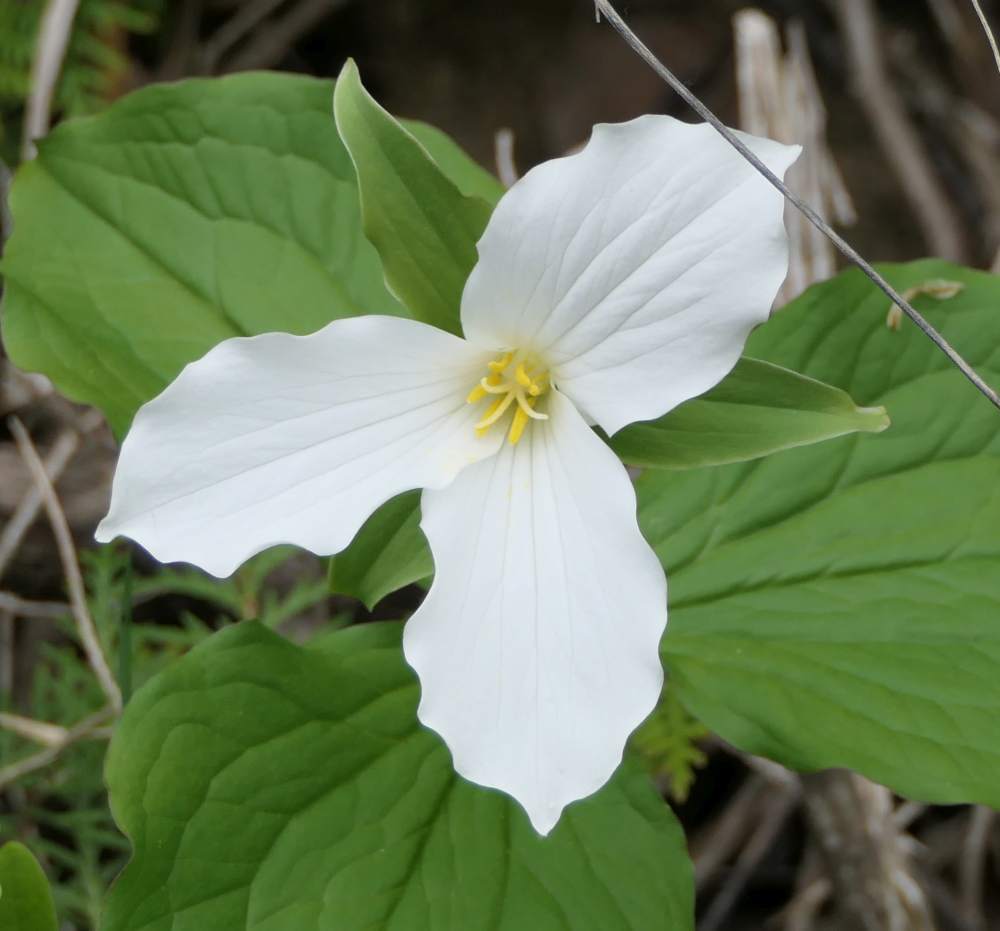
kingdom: Plantae
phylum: Tracheophyta
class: Liliopsida
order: Liliales
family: Melanthiaceae
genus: Trillium
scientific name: Trillium grandiflorum
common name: Great white trillium
